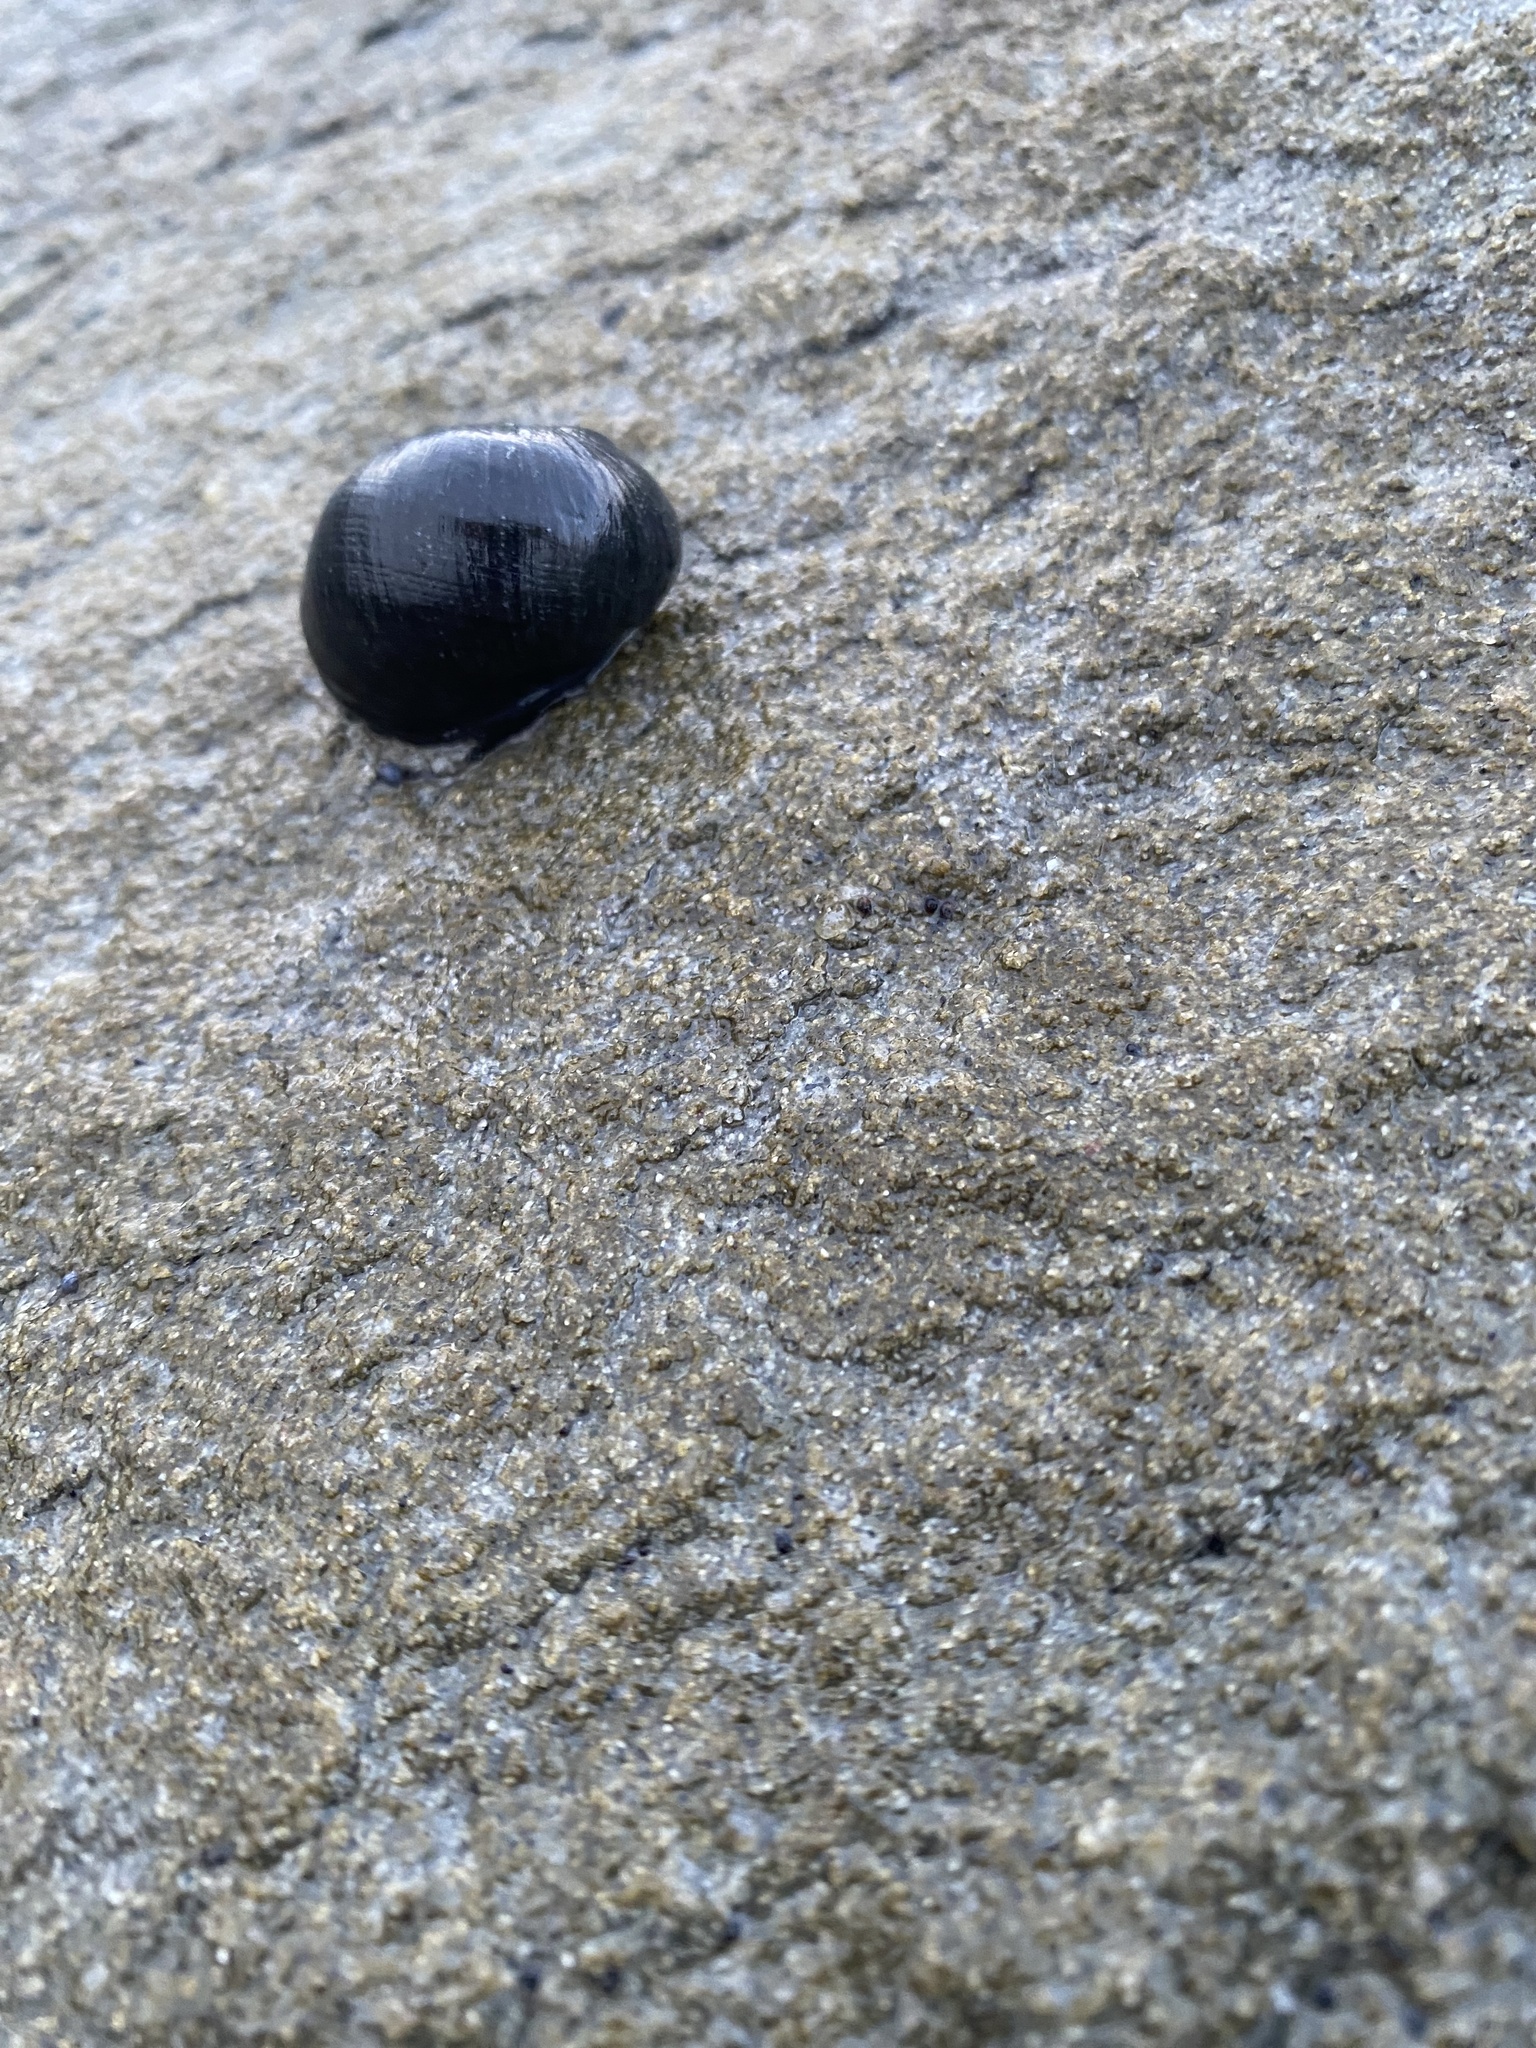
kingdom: Animalia
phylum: Mollusca
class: Gastropoda
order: Cycloneritida
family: Neritidae
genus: Nerita
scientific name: Nerita melanotragus
